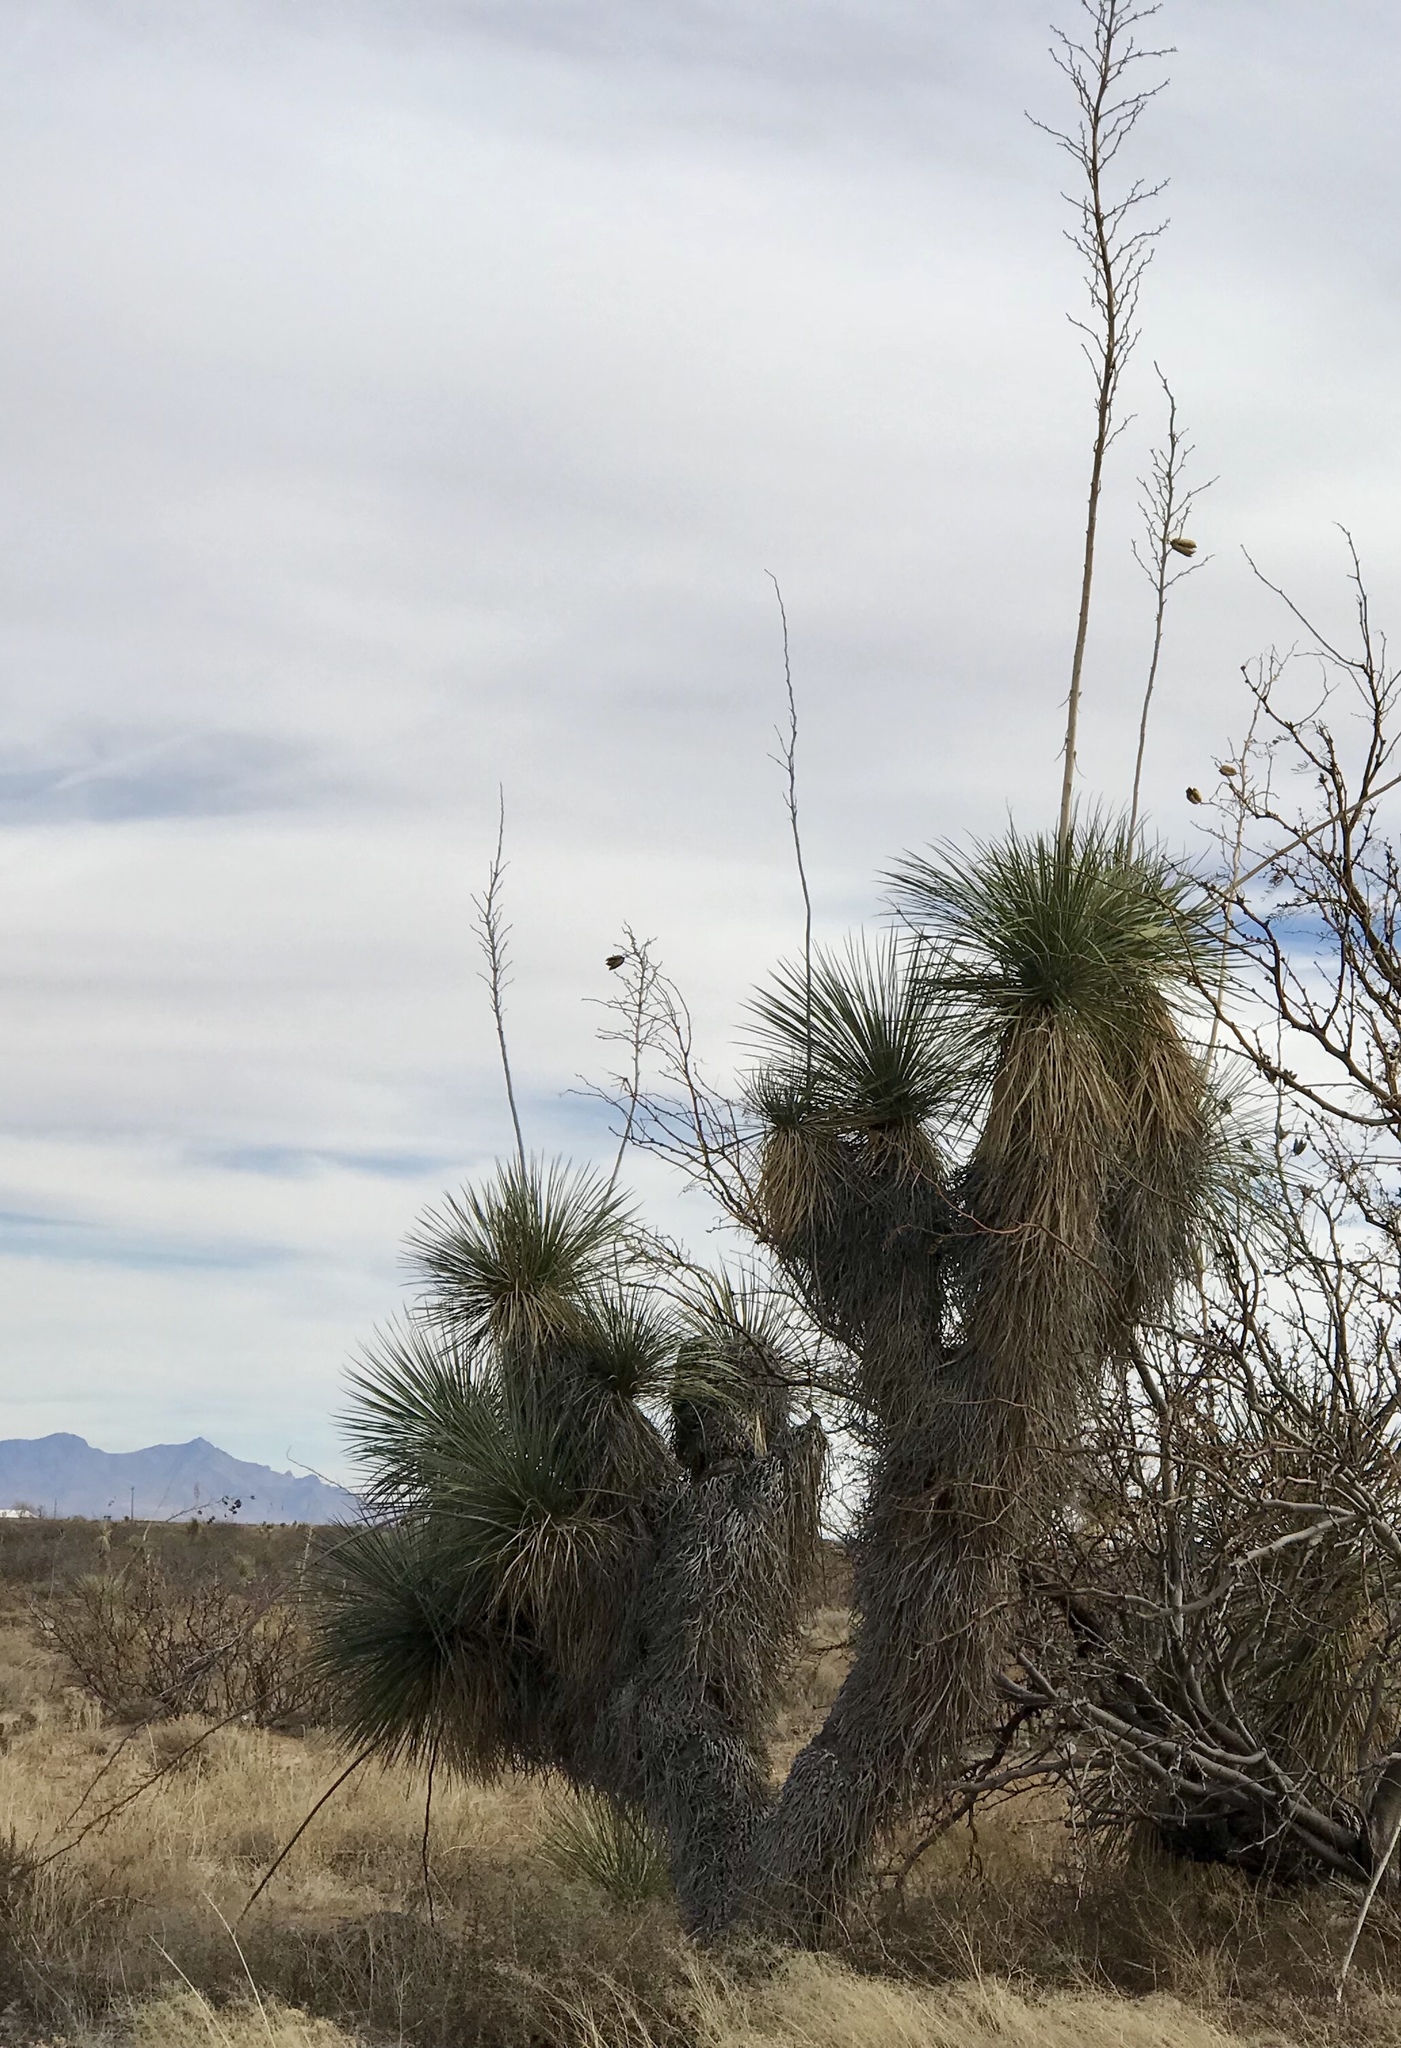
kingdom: Plantae
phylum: Tracheophyta
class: Liliopsida
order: Asparagales
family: Asparagaceae
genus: Yucca
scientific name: Yucca elata
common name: Palmella
